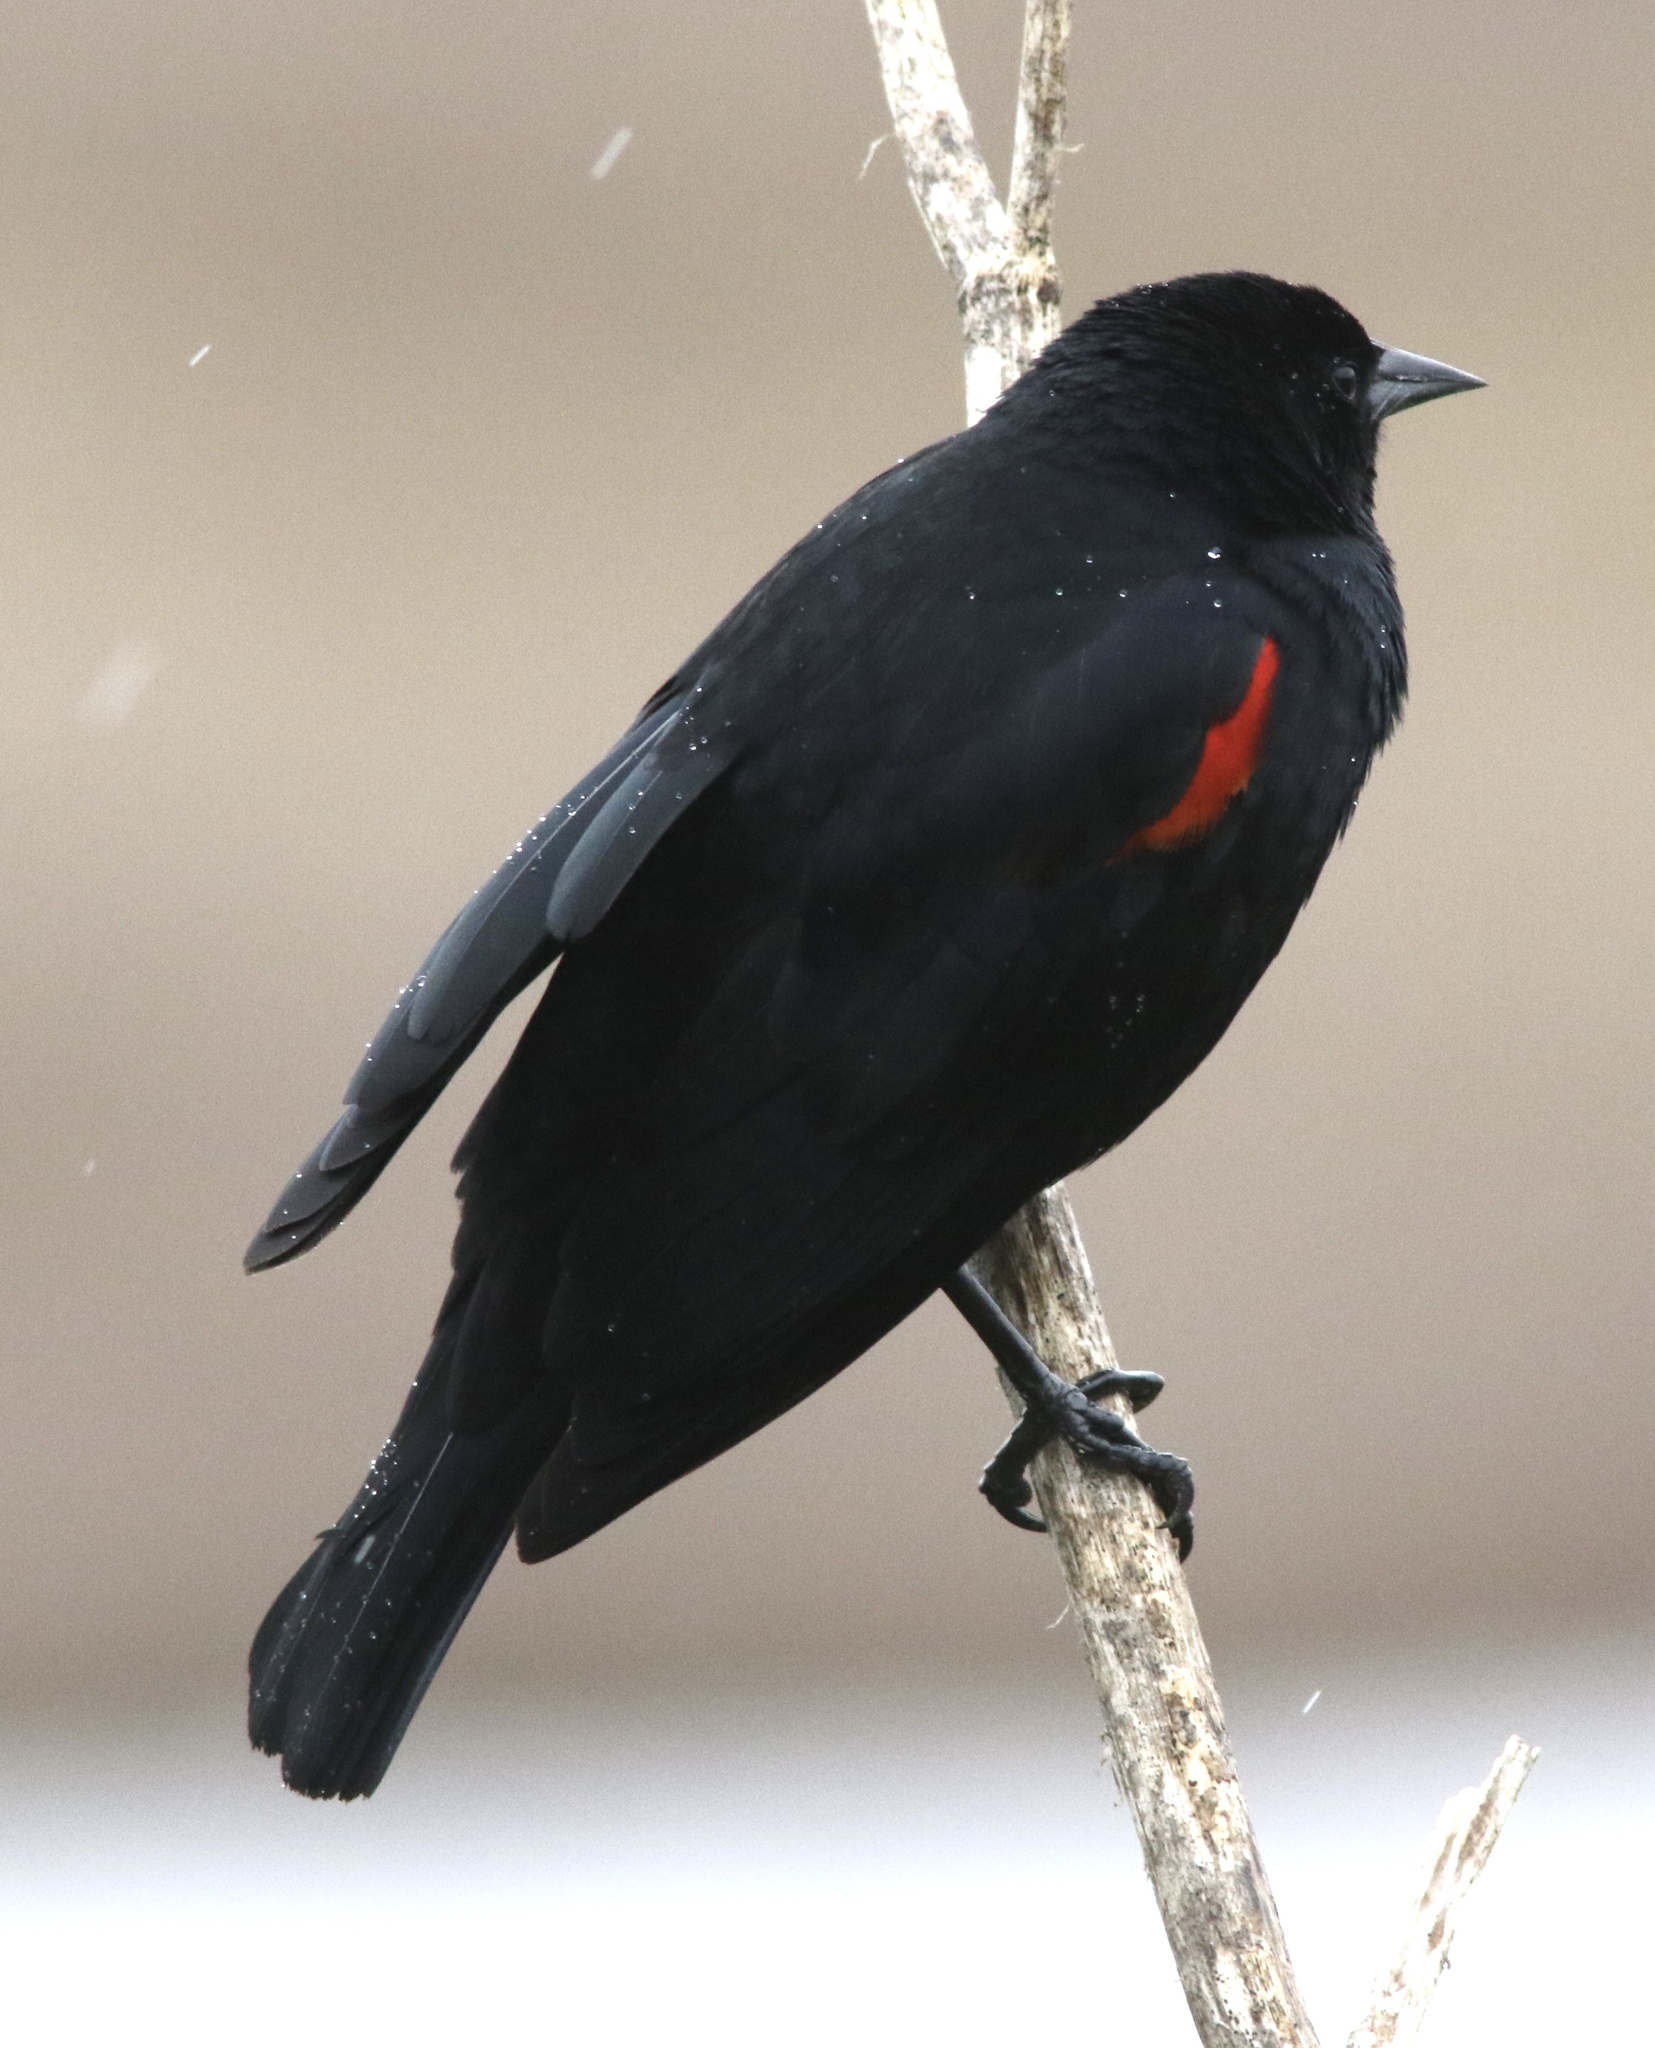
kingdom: Animalia
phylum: Chordata
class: Aves
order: Passeriformes
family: Icteridae
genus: Agelaius
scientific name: Agelaius phoeniceus
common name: Red-winged blackbird
